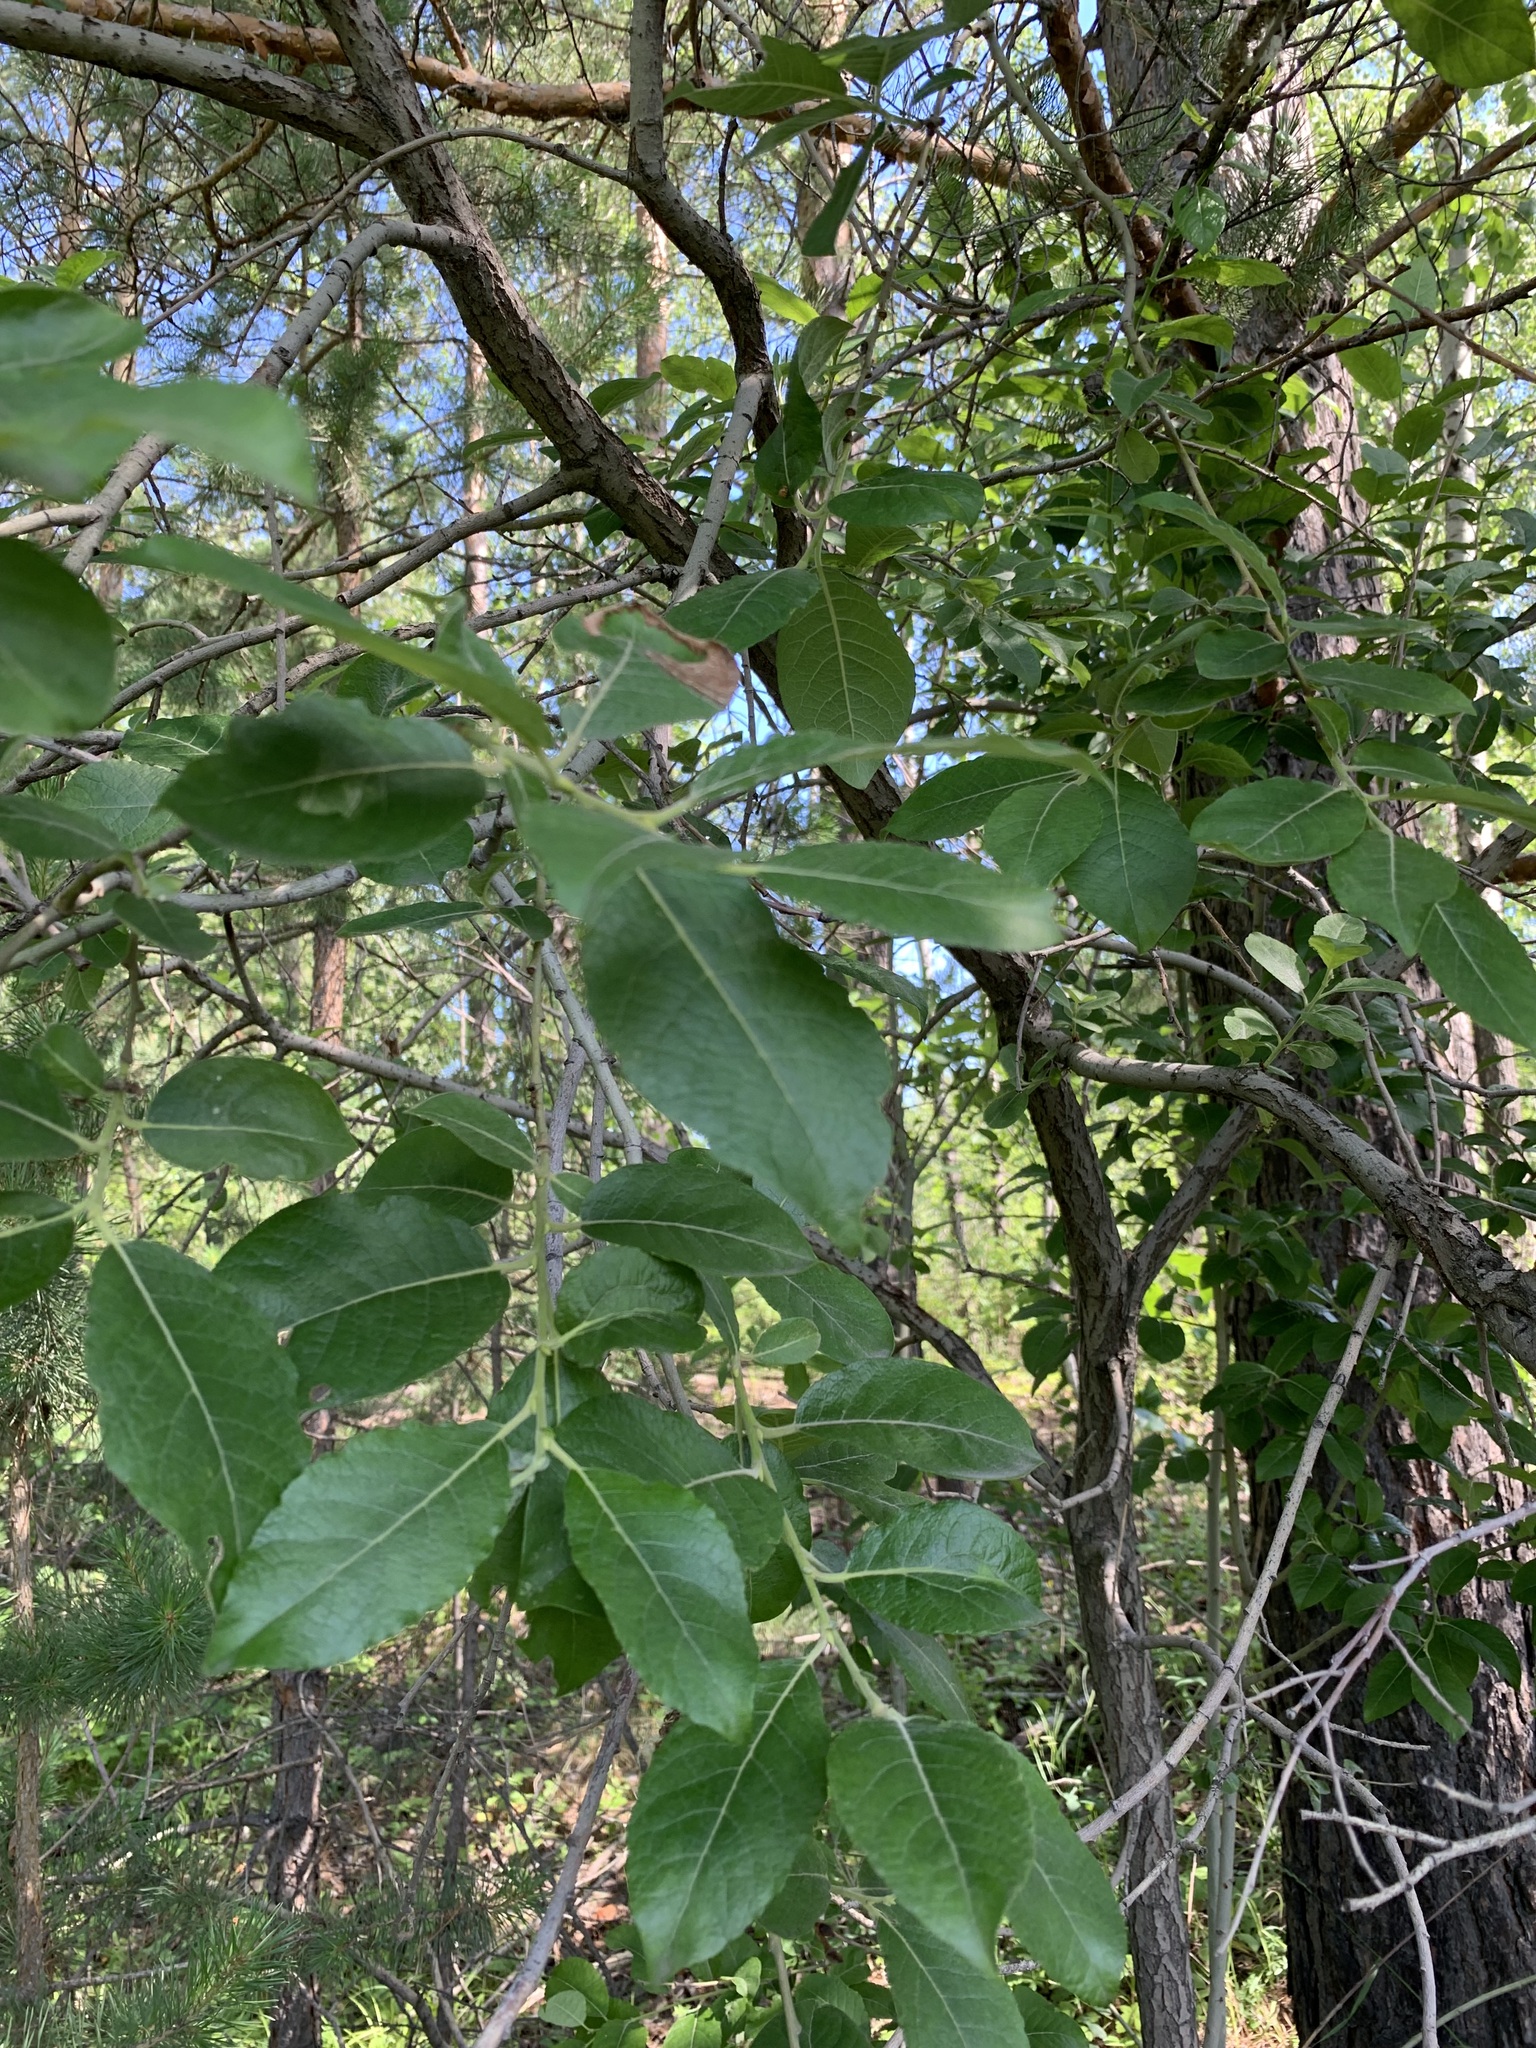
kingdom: Plantae
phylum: Tracheophyta
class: Magnoliopsida
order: Malpighiales
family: Salicaceae
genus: Salix
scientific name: Salix caprea
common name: Goat willow
